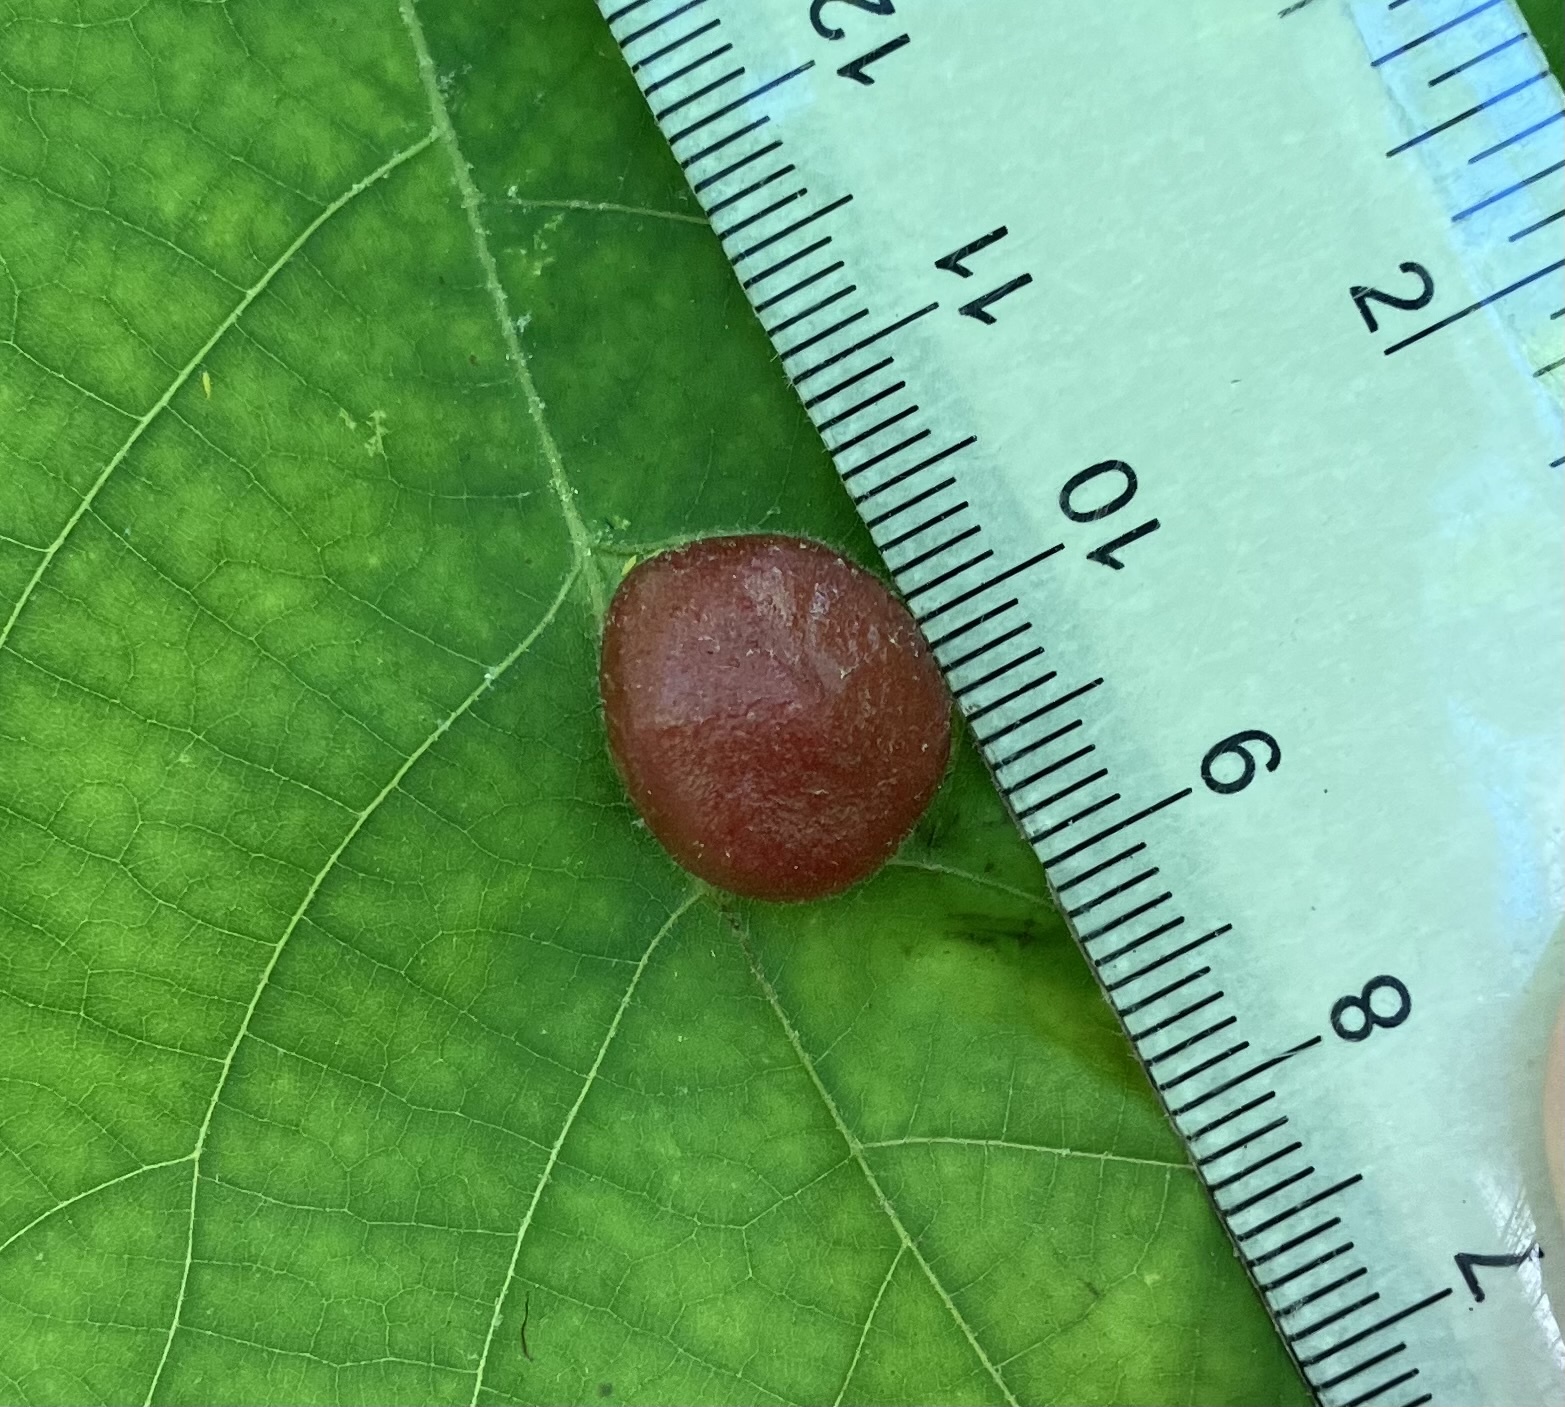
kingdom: Animalia
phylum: Arthropoda
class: Insecta
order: Hemiptera
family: Phylloxeridae
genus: Phylloxera
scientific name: Phylloxera caryae-globuli
